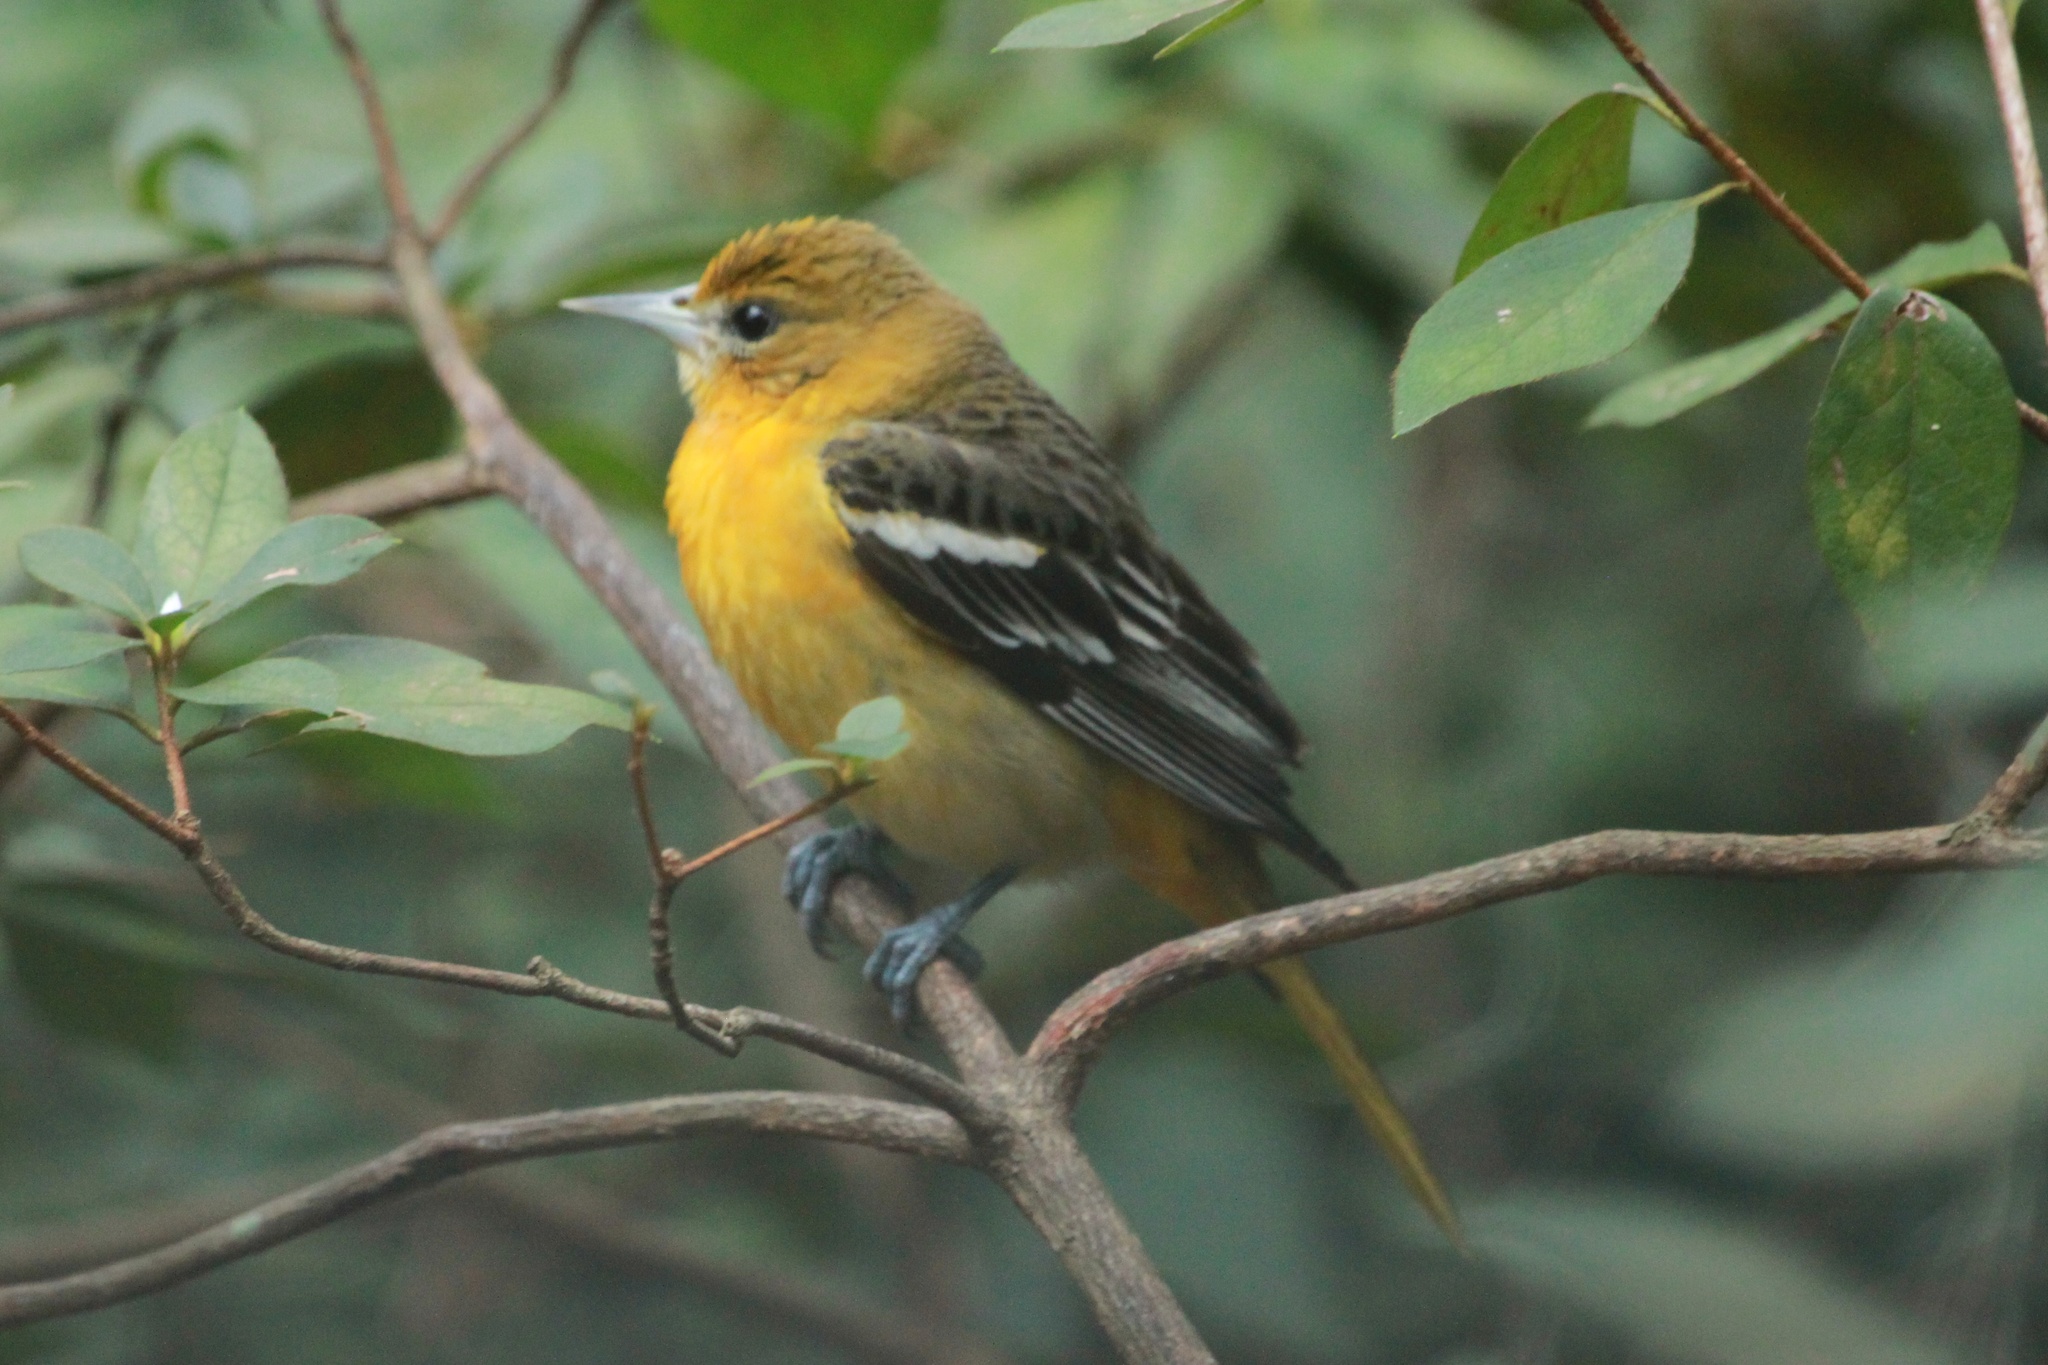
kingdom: Animalia
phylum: Chordata
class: Aves
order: Passeriformes
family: Icteridae
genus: Icterus
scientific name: Icterus galbula
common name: Baltimore oriole
